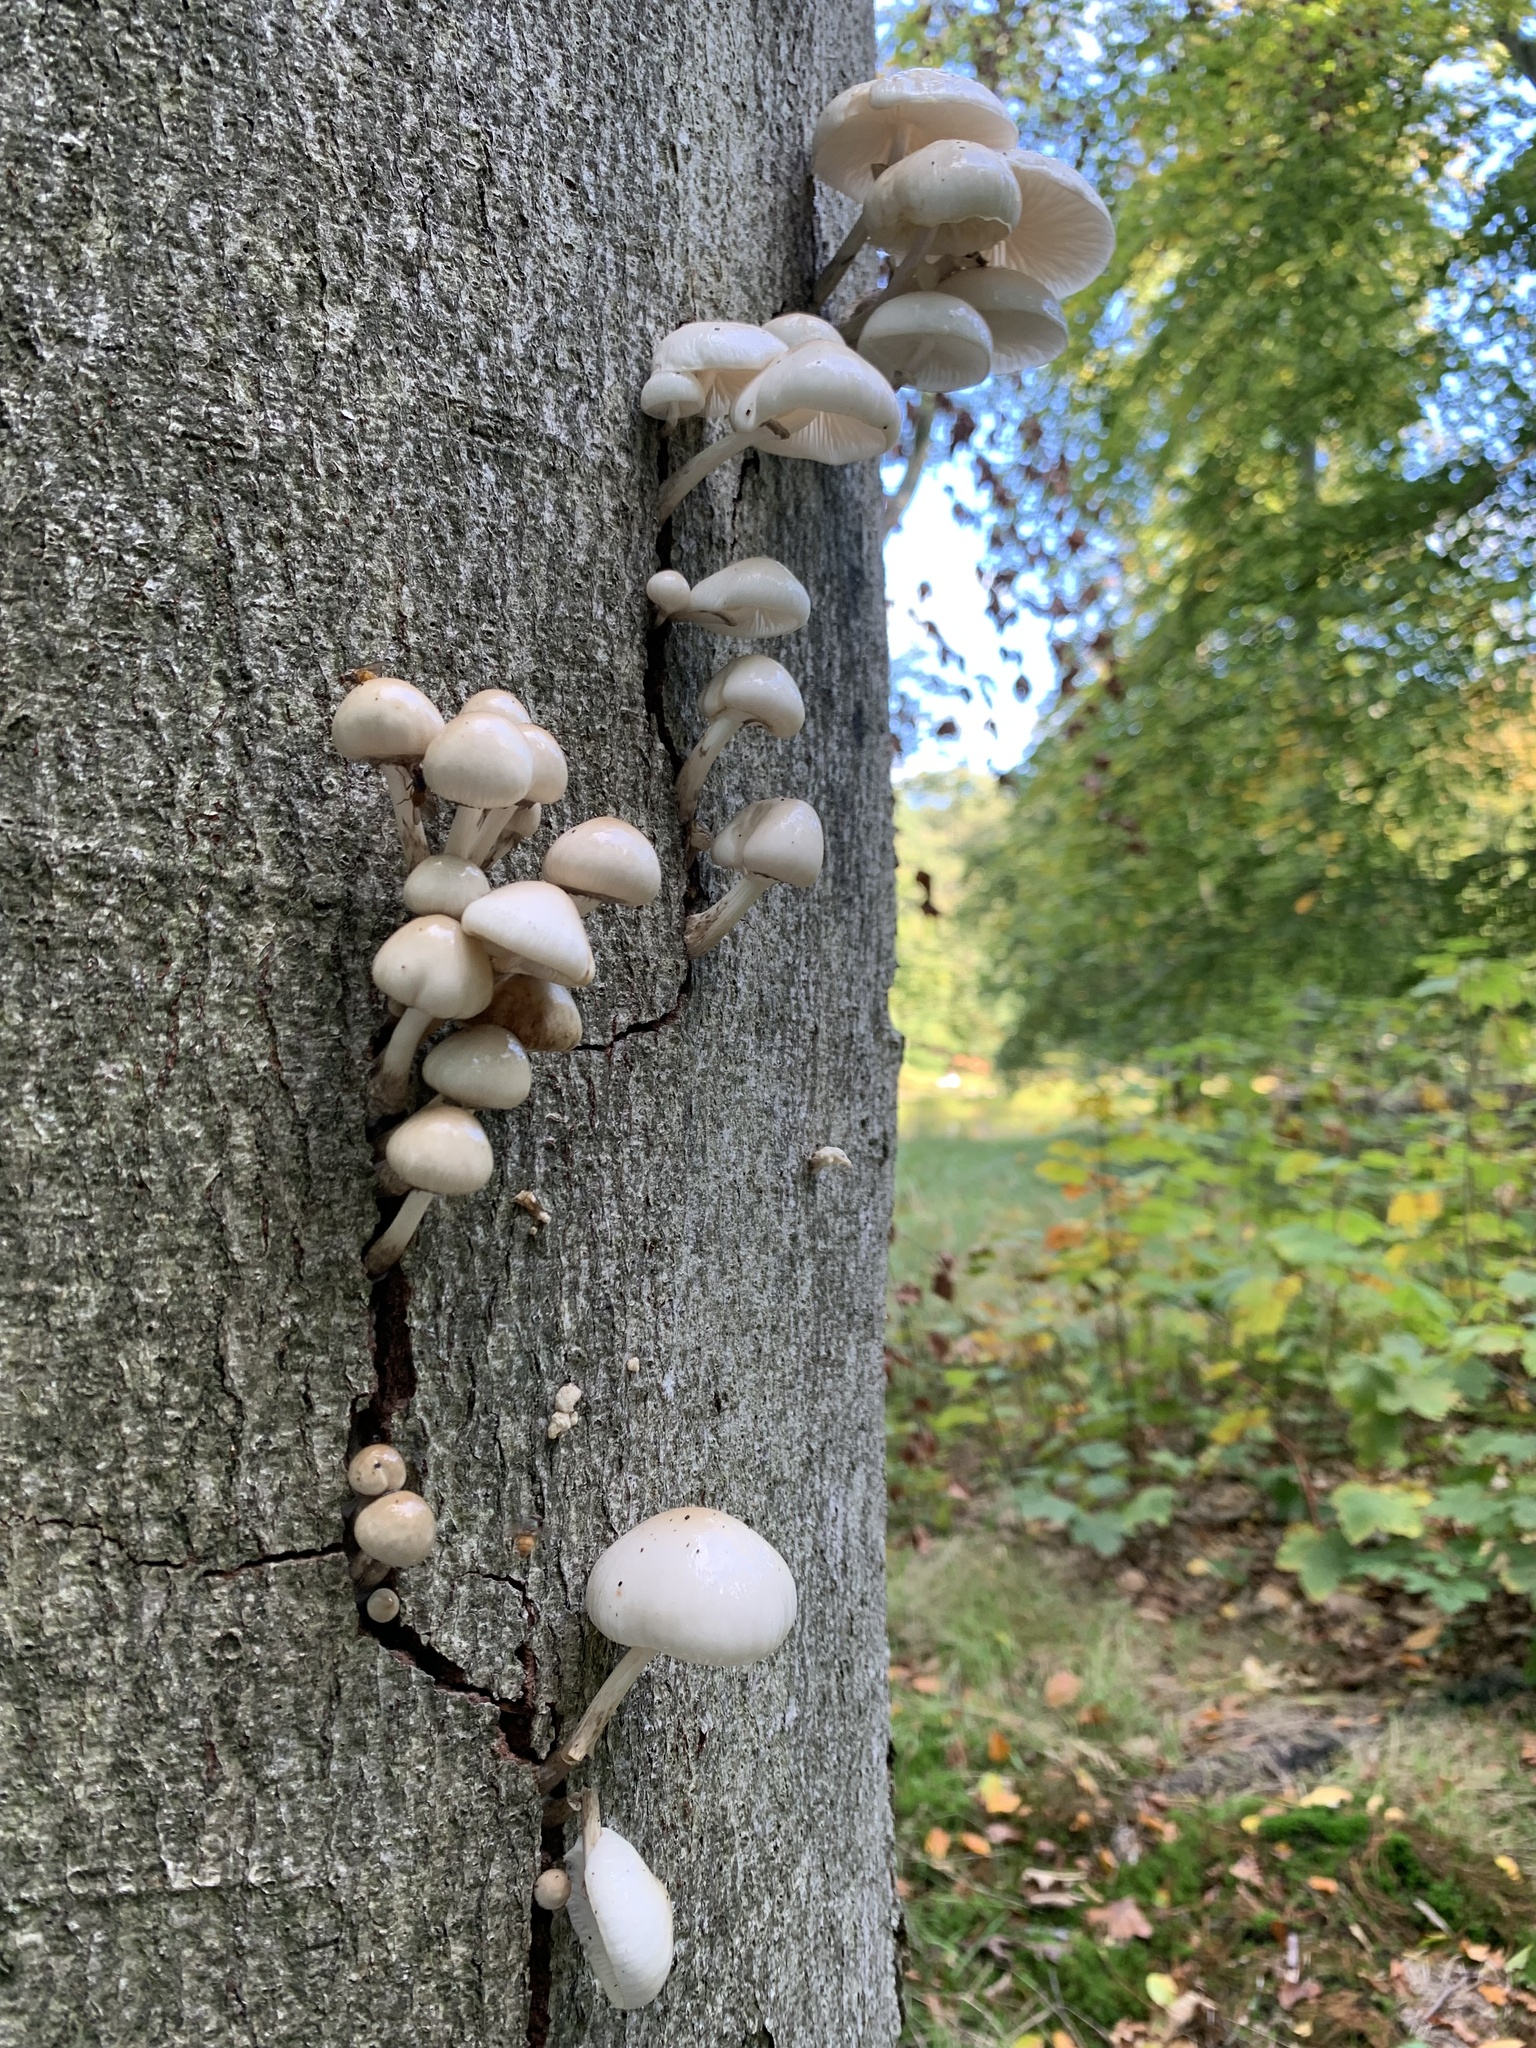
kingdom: Fungi
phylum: Basidiomycota
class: Agaricomycetes
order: Agaricales
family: Physalacriaceae
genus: Mucidula
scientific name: Mucidula mucida
